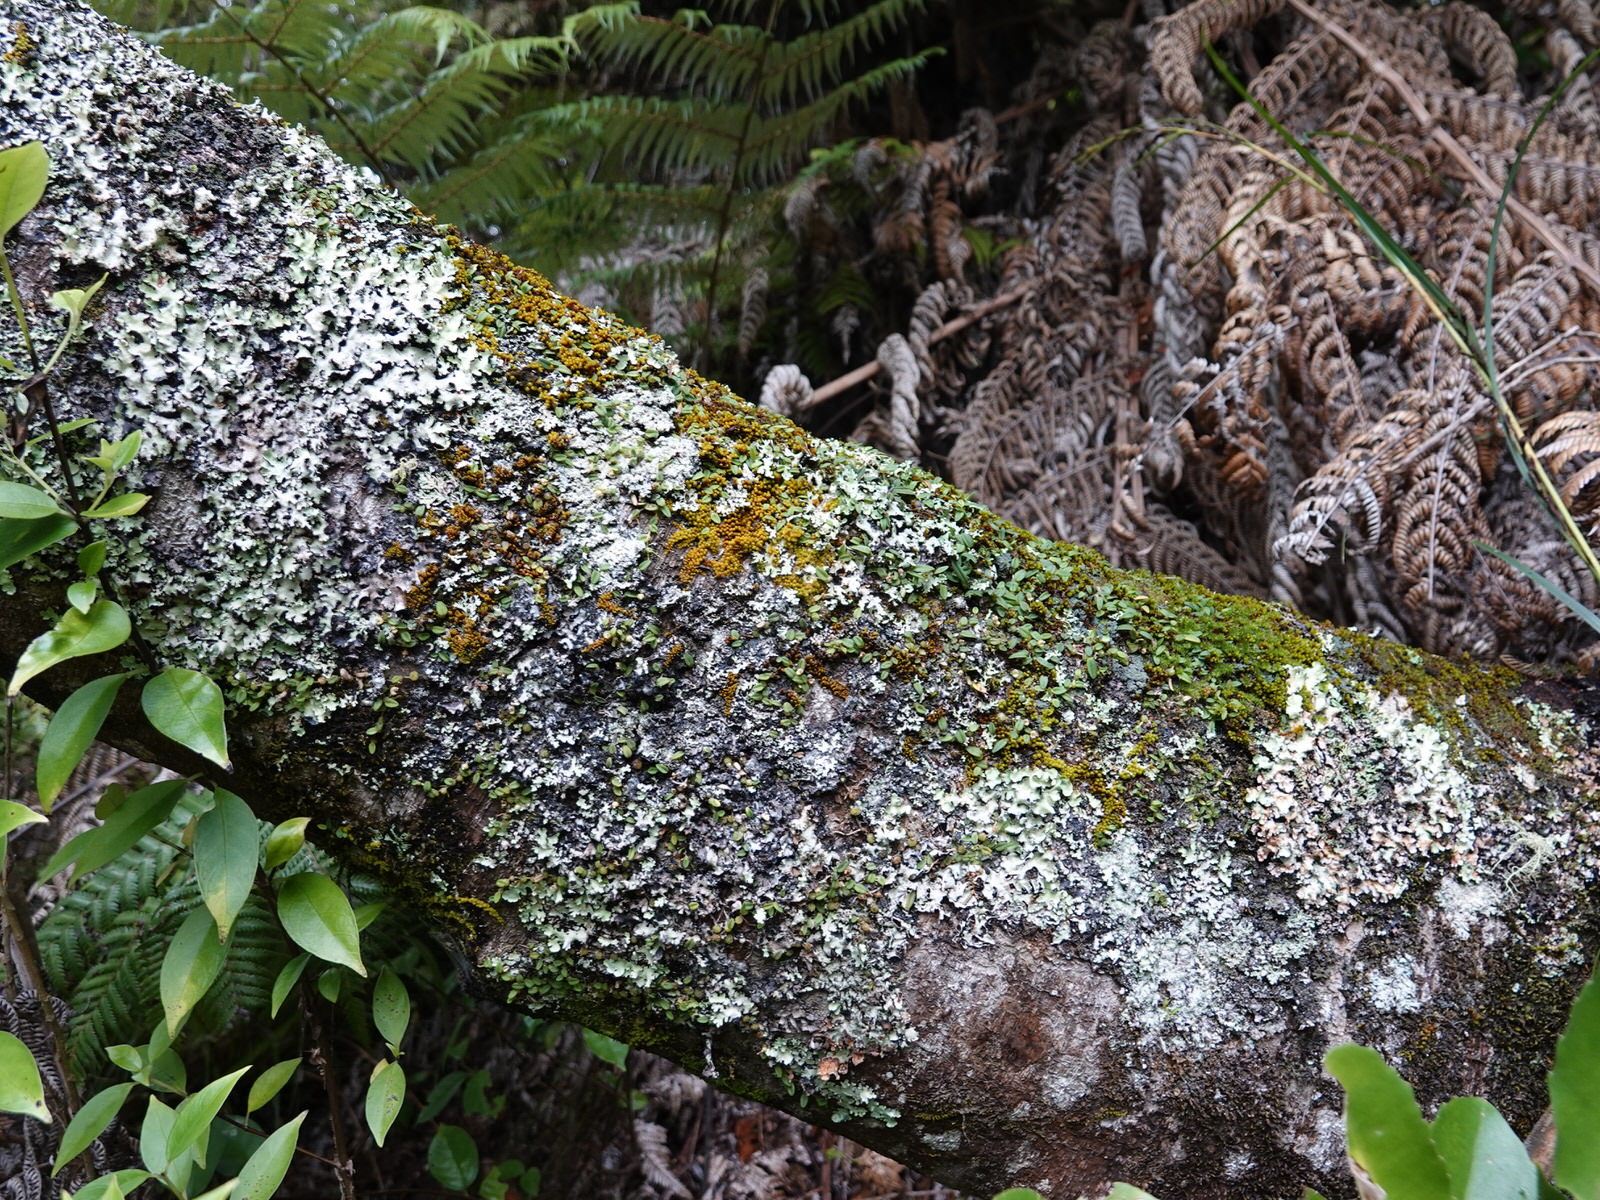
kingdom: Plantae
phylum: Tracheophyta
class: Liliopsida
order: Asparagales
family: Orchidaceae
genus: Bulbophyllum
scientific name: Bulbophyllum pygmaeum
